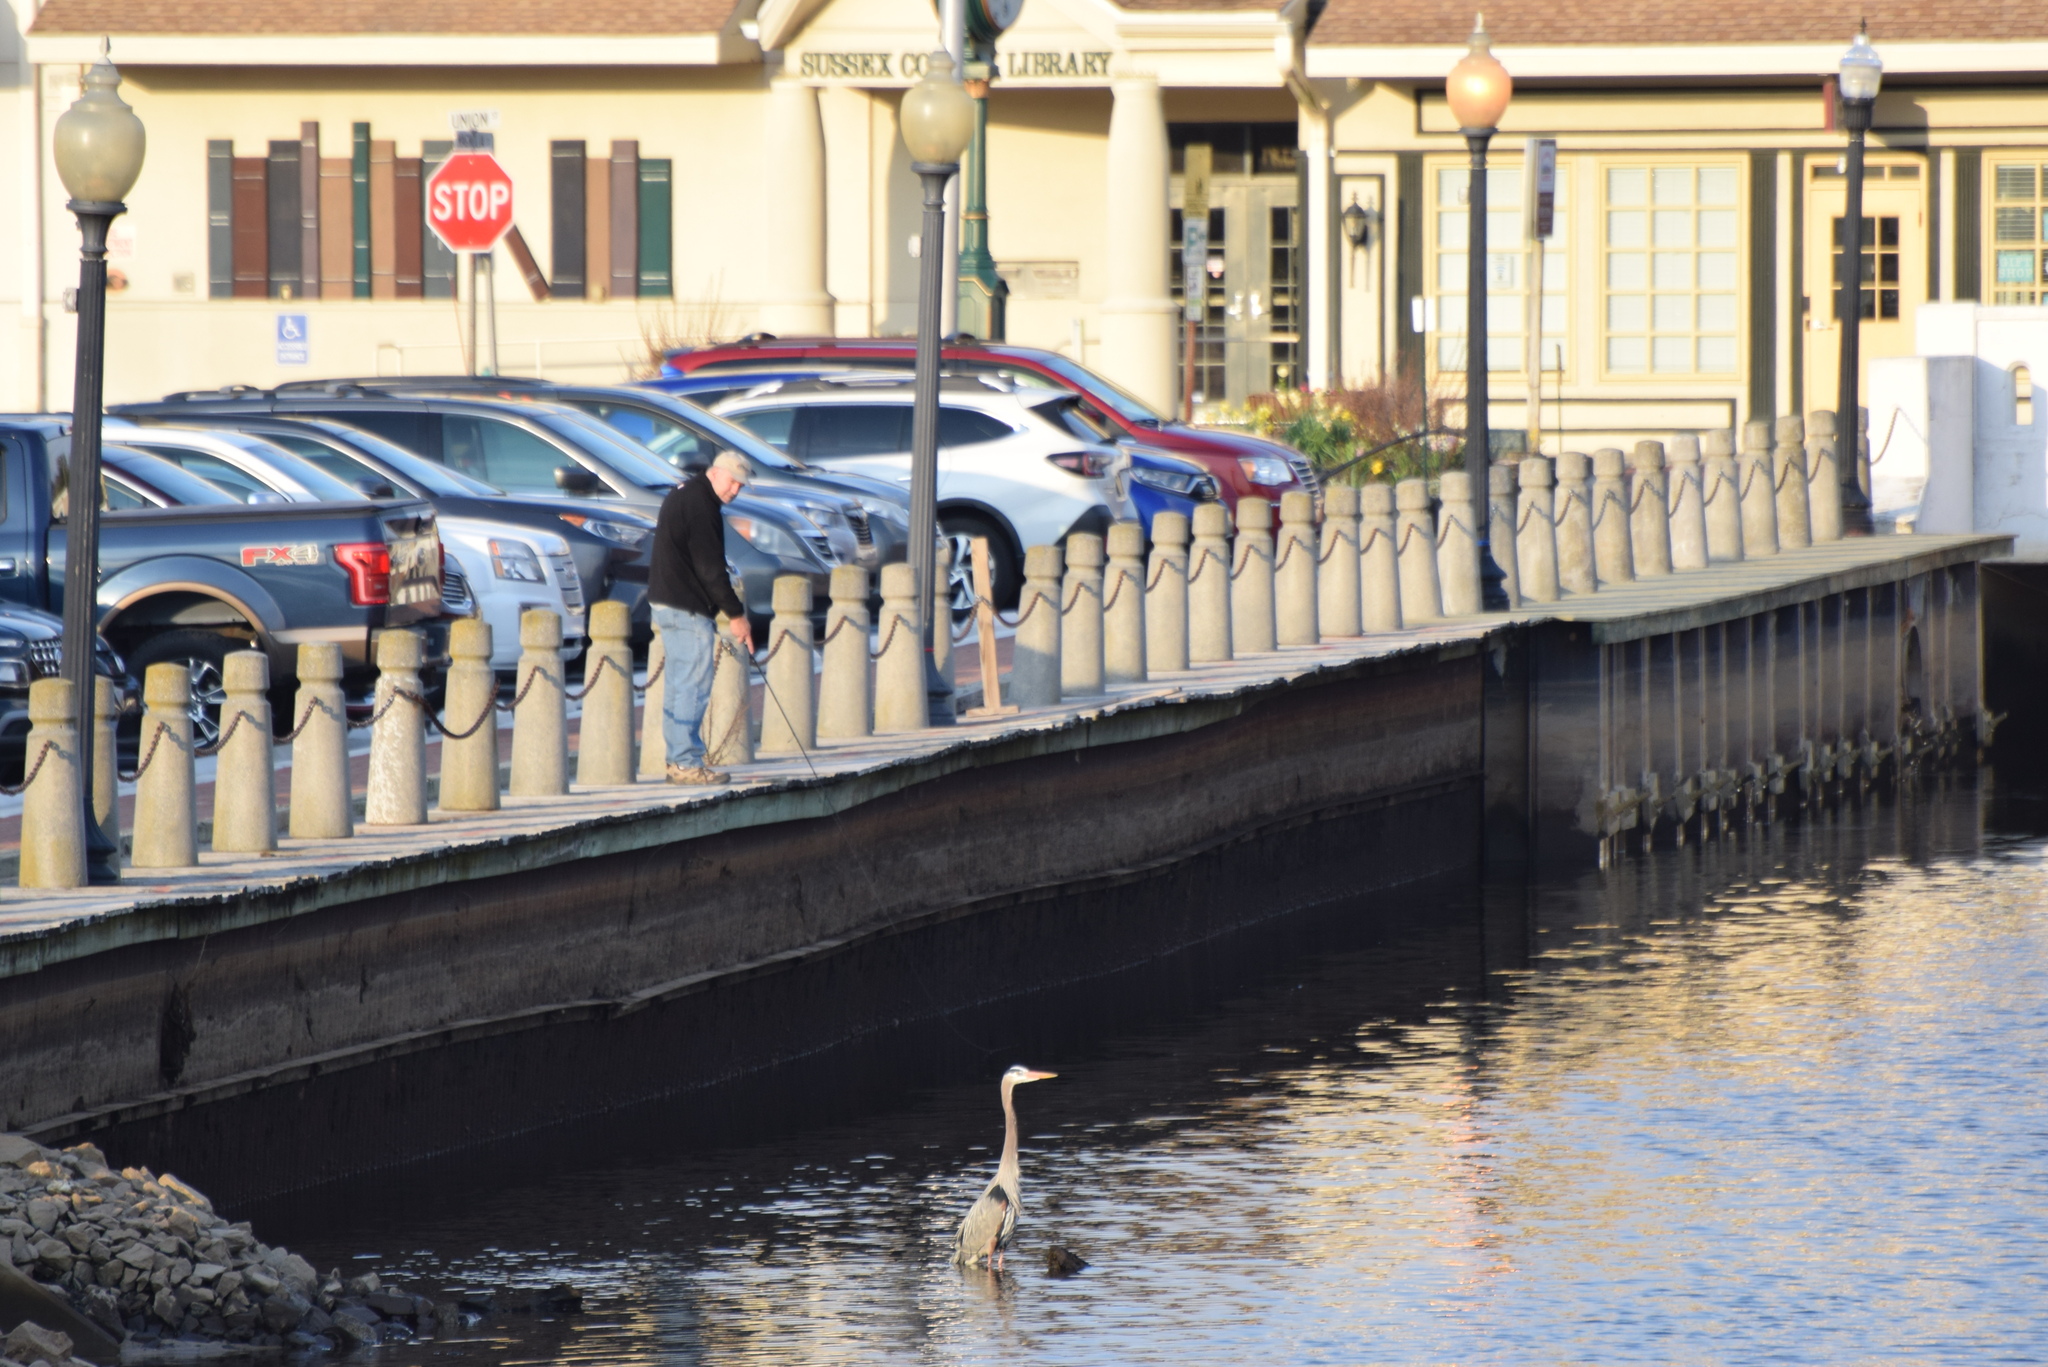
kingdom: Animalia
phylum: Chordata
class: Aves
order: Pelecaniformes
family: Ardeidae
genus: Ardea
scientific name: Ardea herodias
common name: Great blue heron
